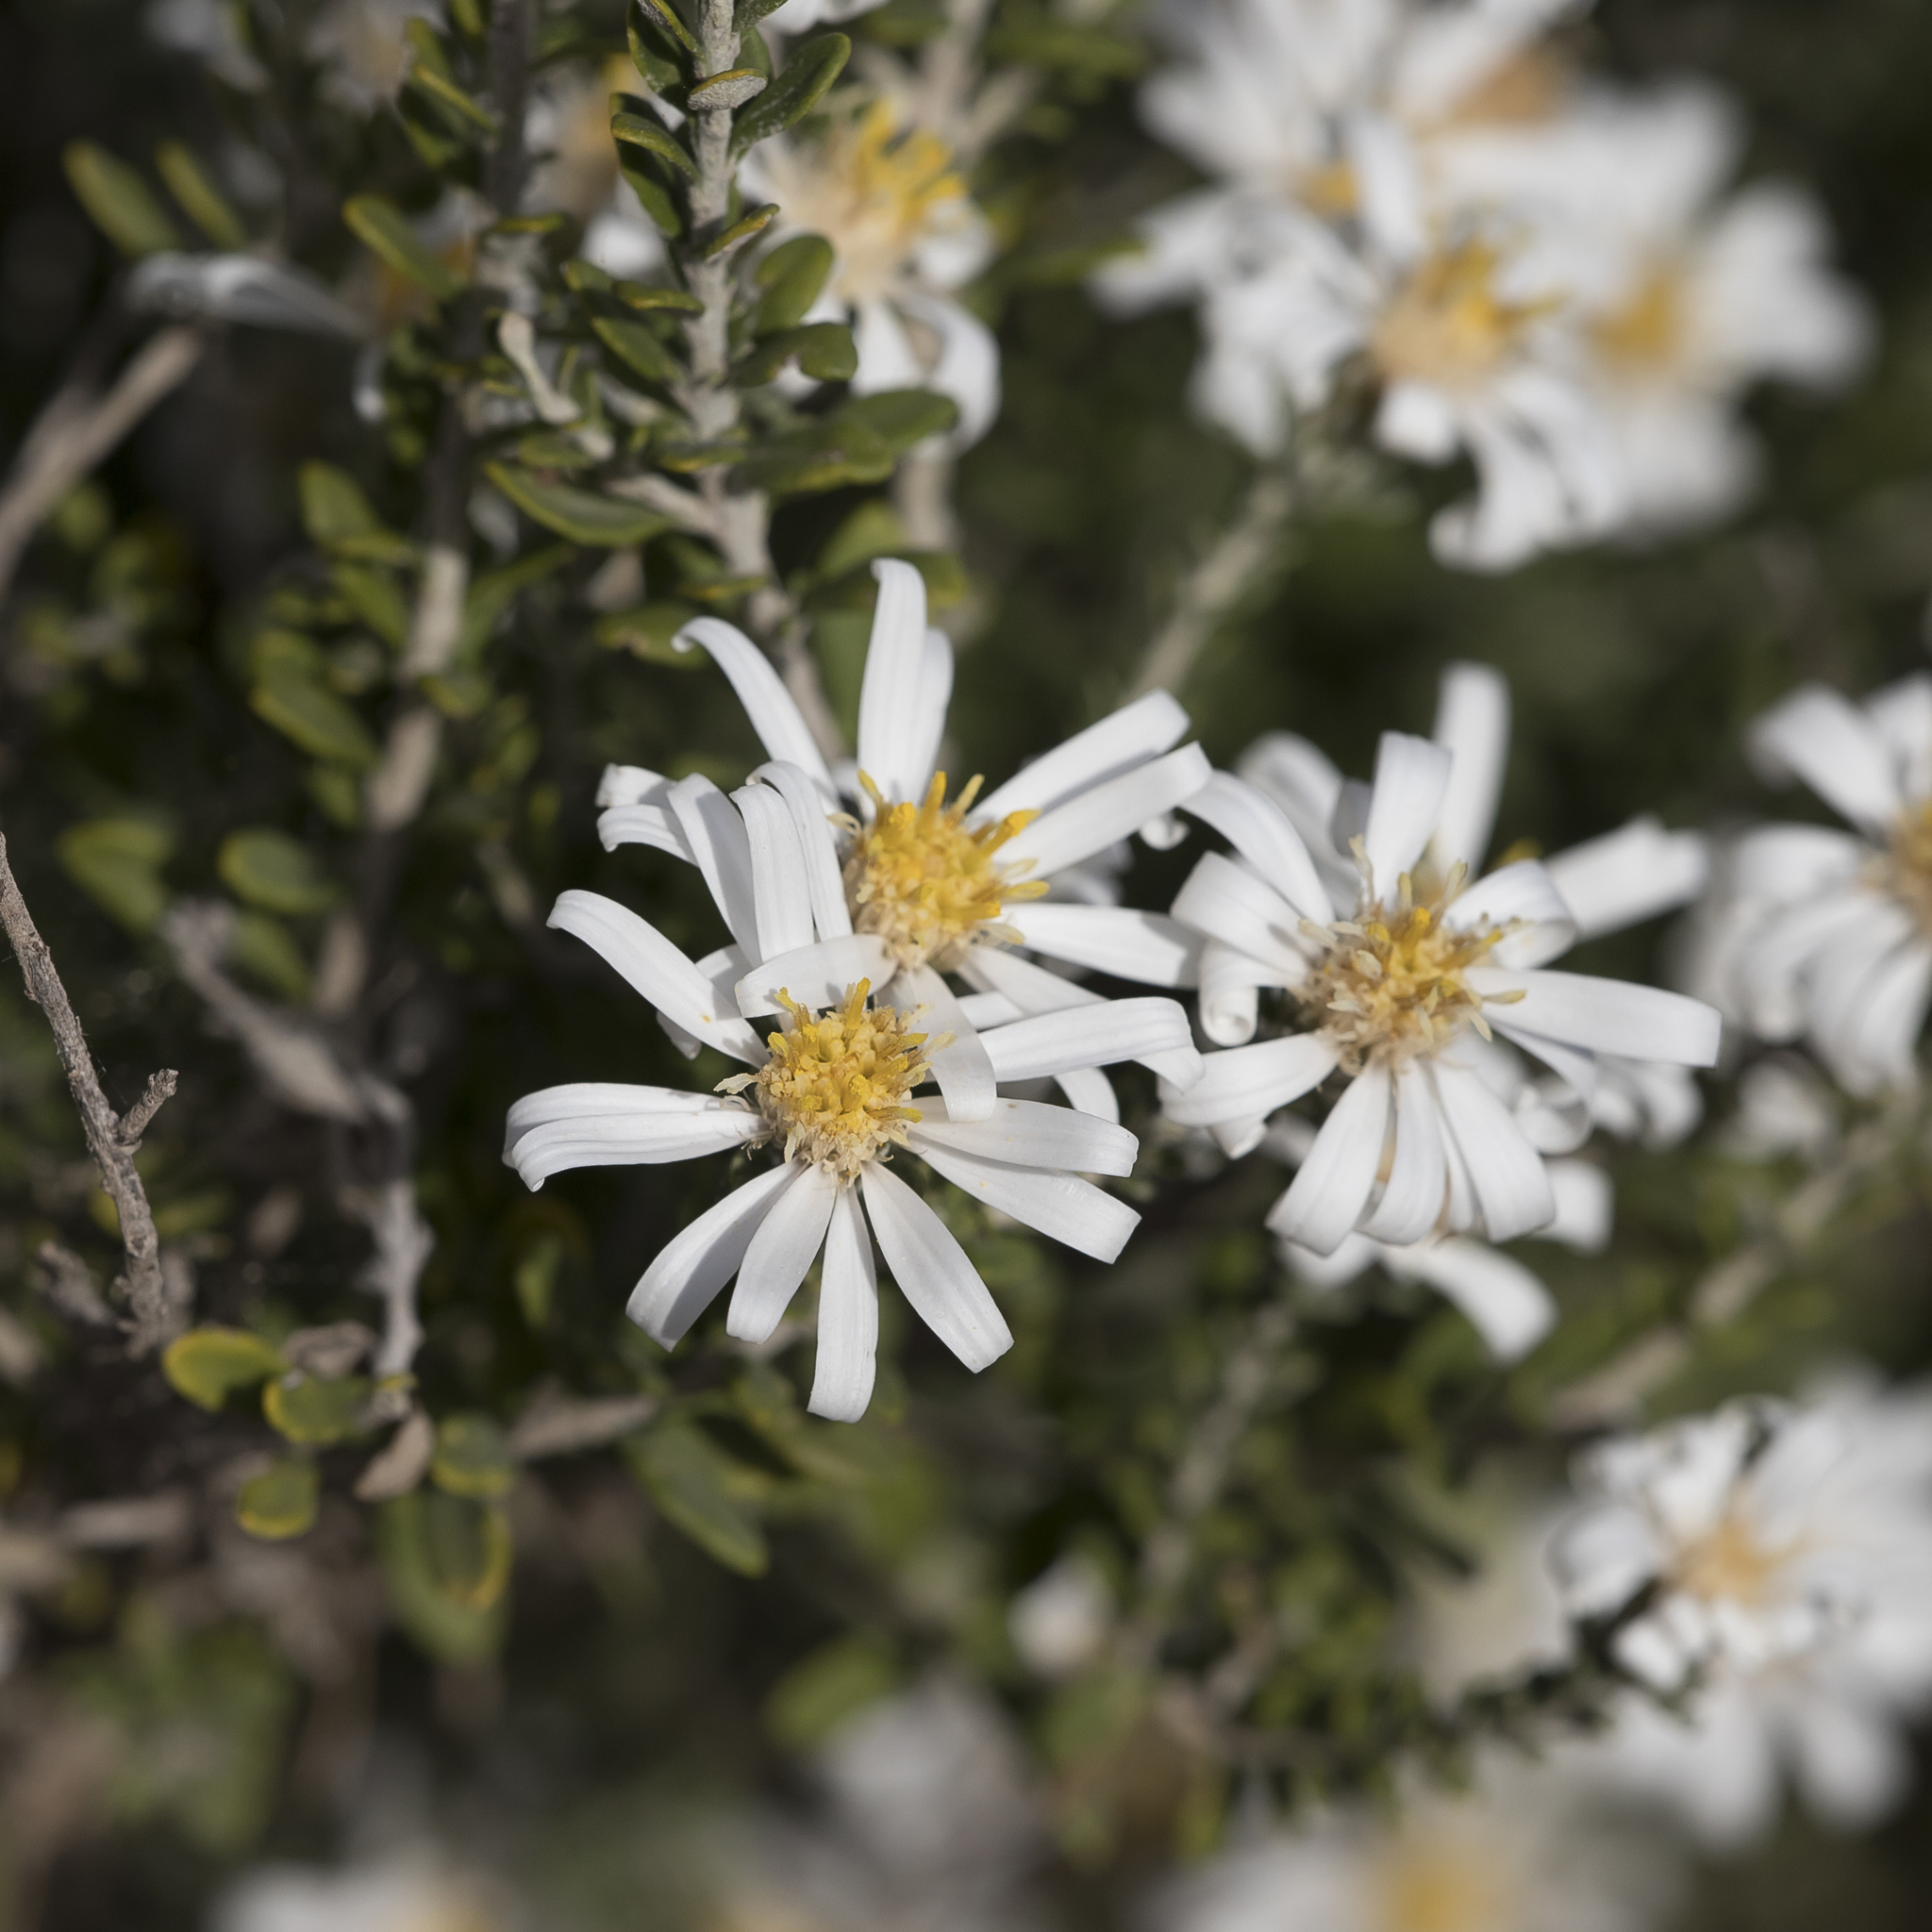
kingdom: Plantae
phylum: Tracheophyta
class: Magnoliopsida
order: Asterales
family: Asteraceae
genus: Olearia
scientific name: Olearia pimeleoides
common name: Showy daisybush
